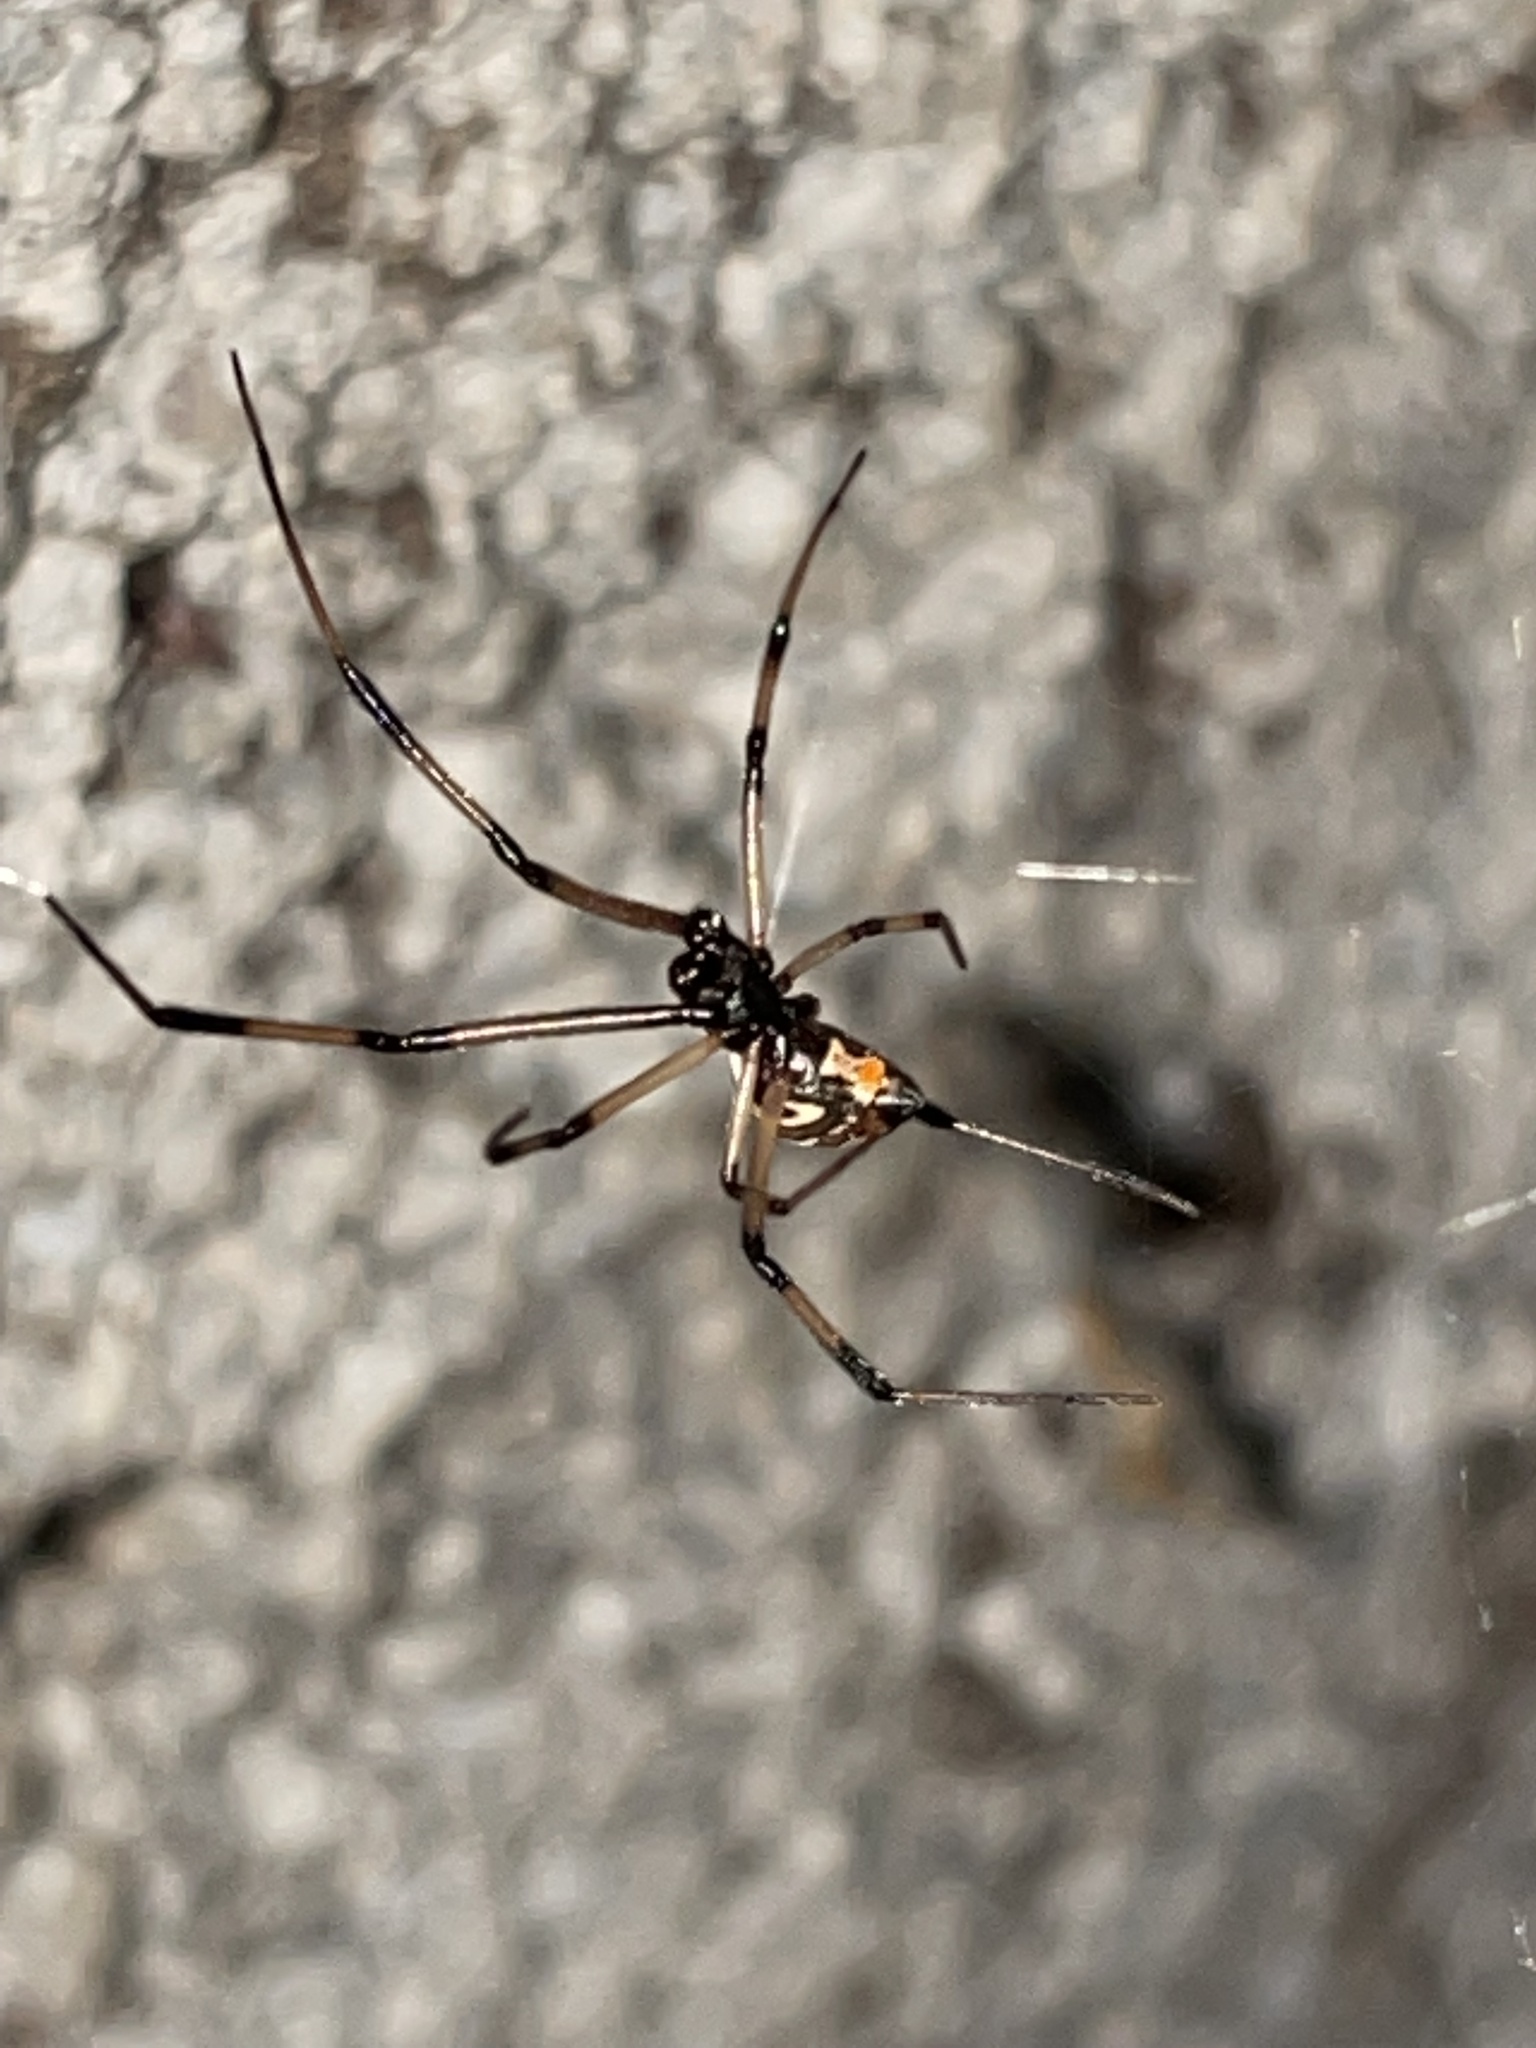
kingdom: Animalia
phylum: Arthropoda
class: Arachnida
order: Araneae
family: Theridiidae
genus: Latrodectus
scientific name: Latrodectus mactans
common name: Cobweb spiders
